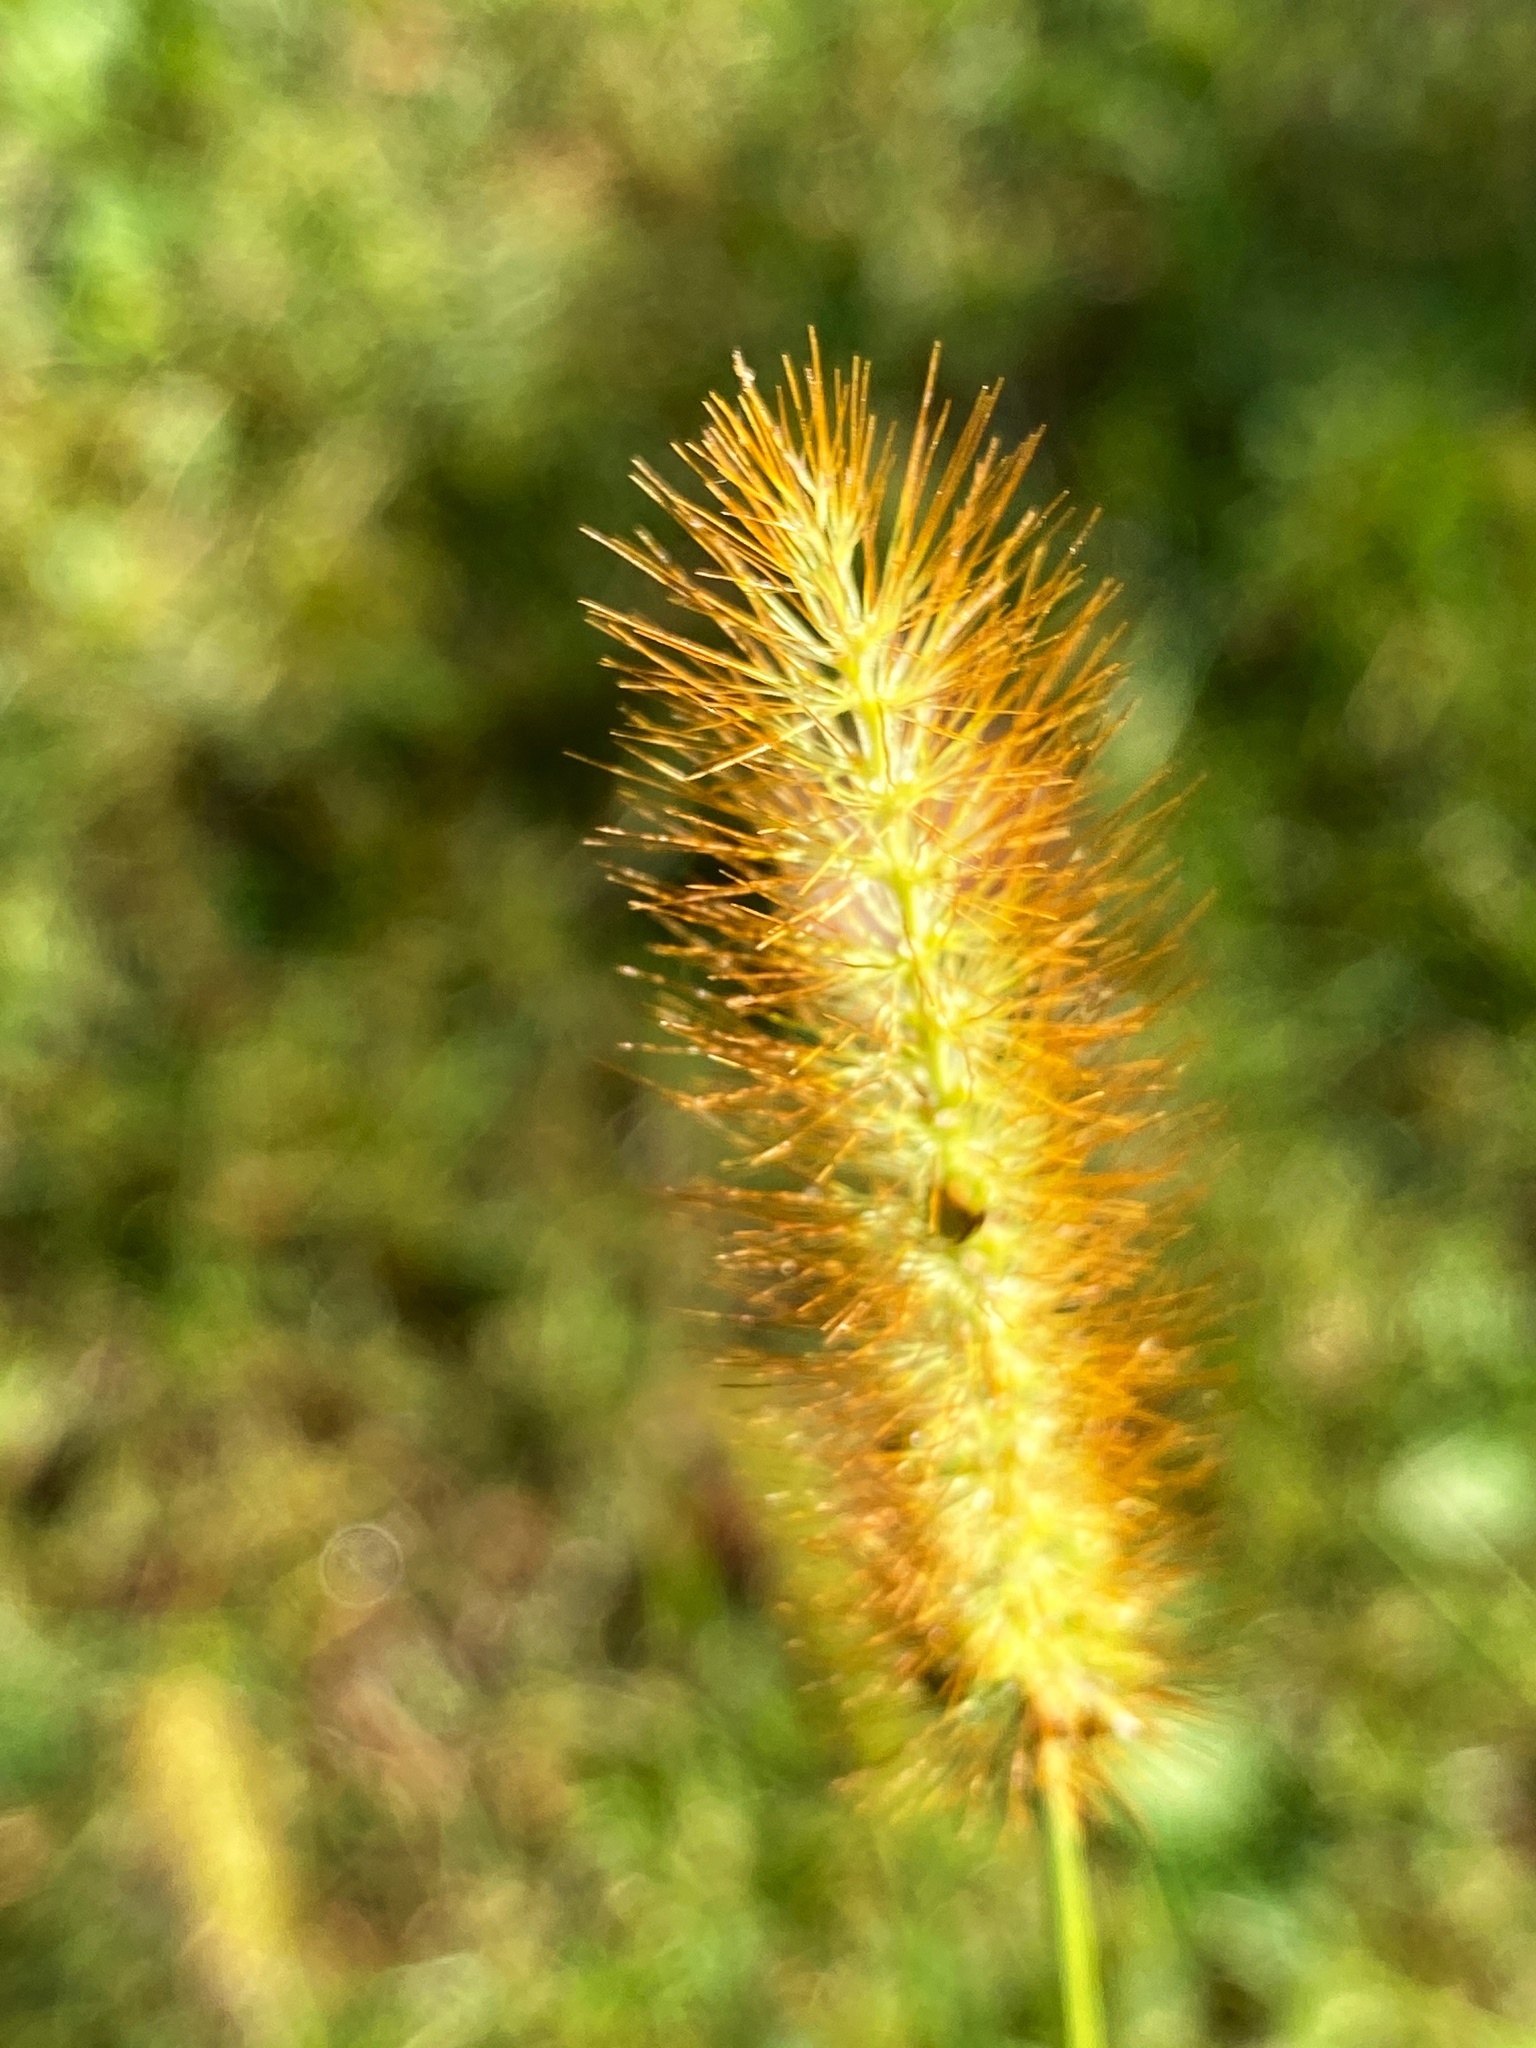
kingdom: Plantae
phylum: Tracheophyta
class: Liliopsida
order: Poales
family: Poaceae
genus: Setaria
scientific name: Setaria pumila
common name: Yellow bristle-grass
